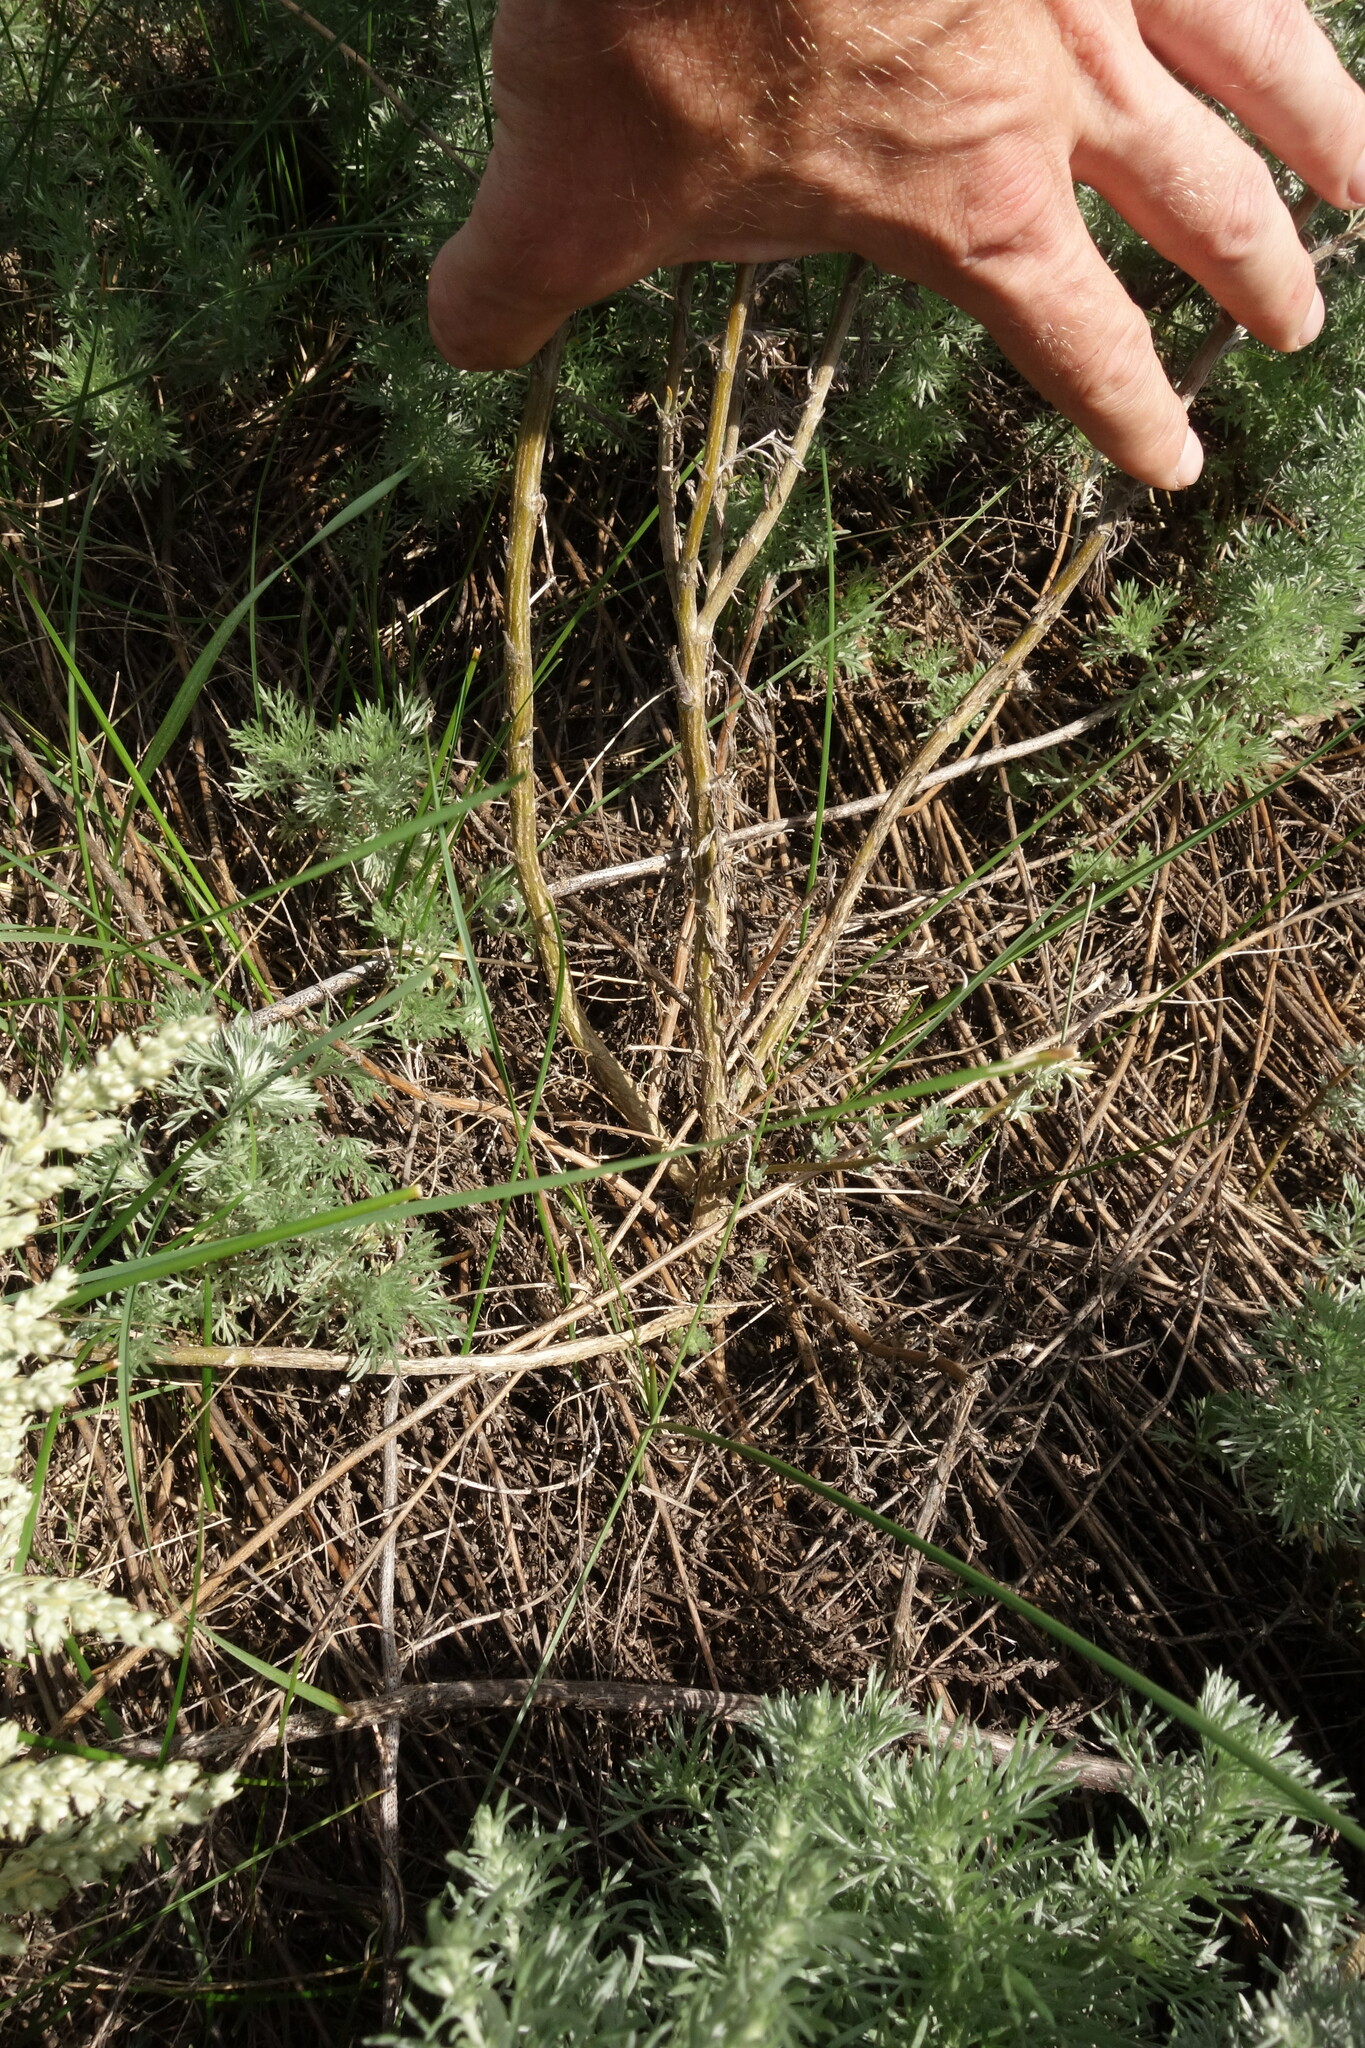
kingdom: Plantae
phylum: Tracheophyta
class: Magnoliopsida
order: Asterales
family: Asteraceae
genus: Artemisia
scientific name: Artemisia austriaca
